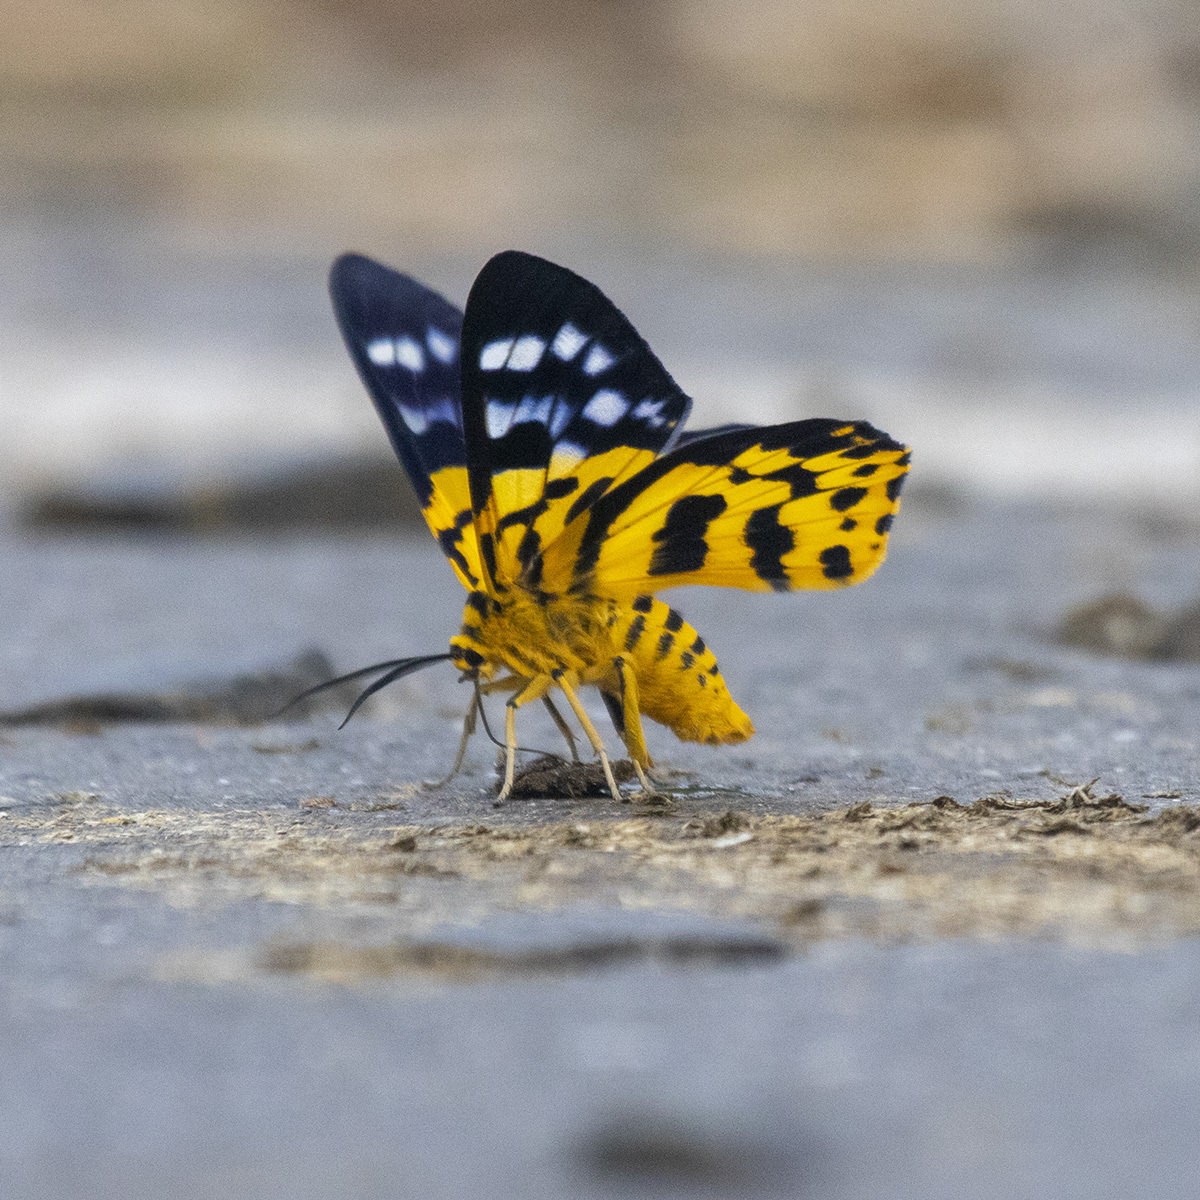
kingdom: Animalia
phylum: Arthropoda
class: Insecta
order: Lepidoptera
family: Geometridae
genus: Dysphania
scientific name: Dysphania militaris
